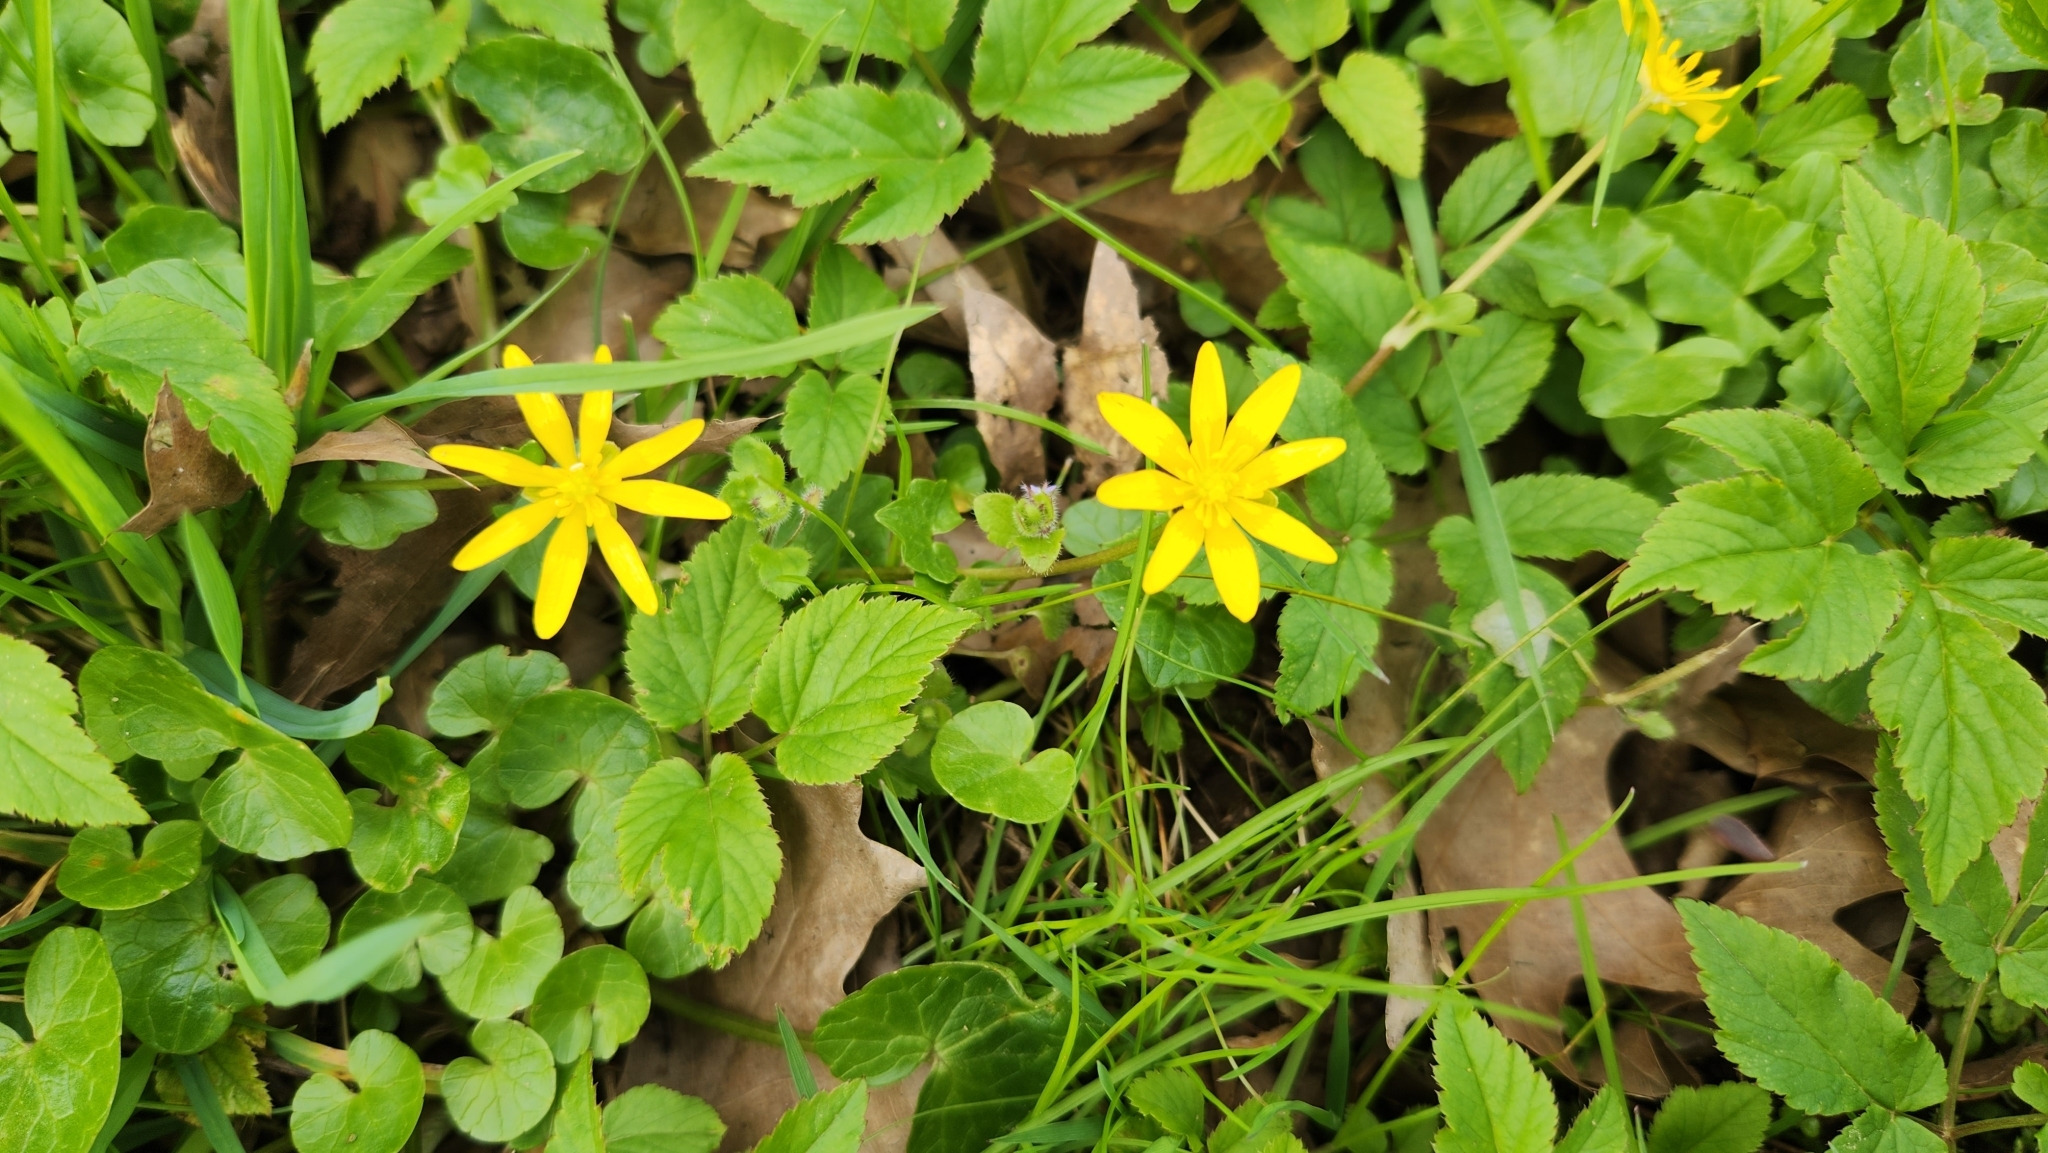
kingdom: Plantae
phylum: Tracheophyta
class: Magnoliopsida
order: Ranunculales
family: Ranunculaceae
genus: Ficaria
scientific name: Ficaria verna
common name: Lesser celandine
